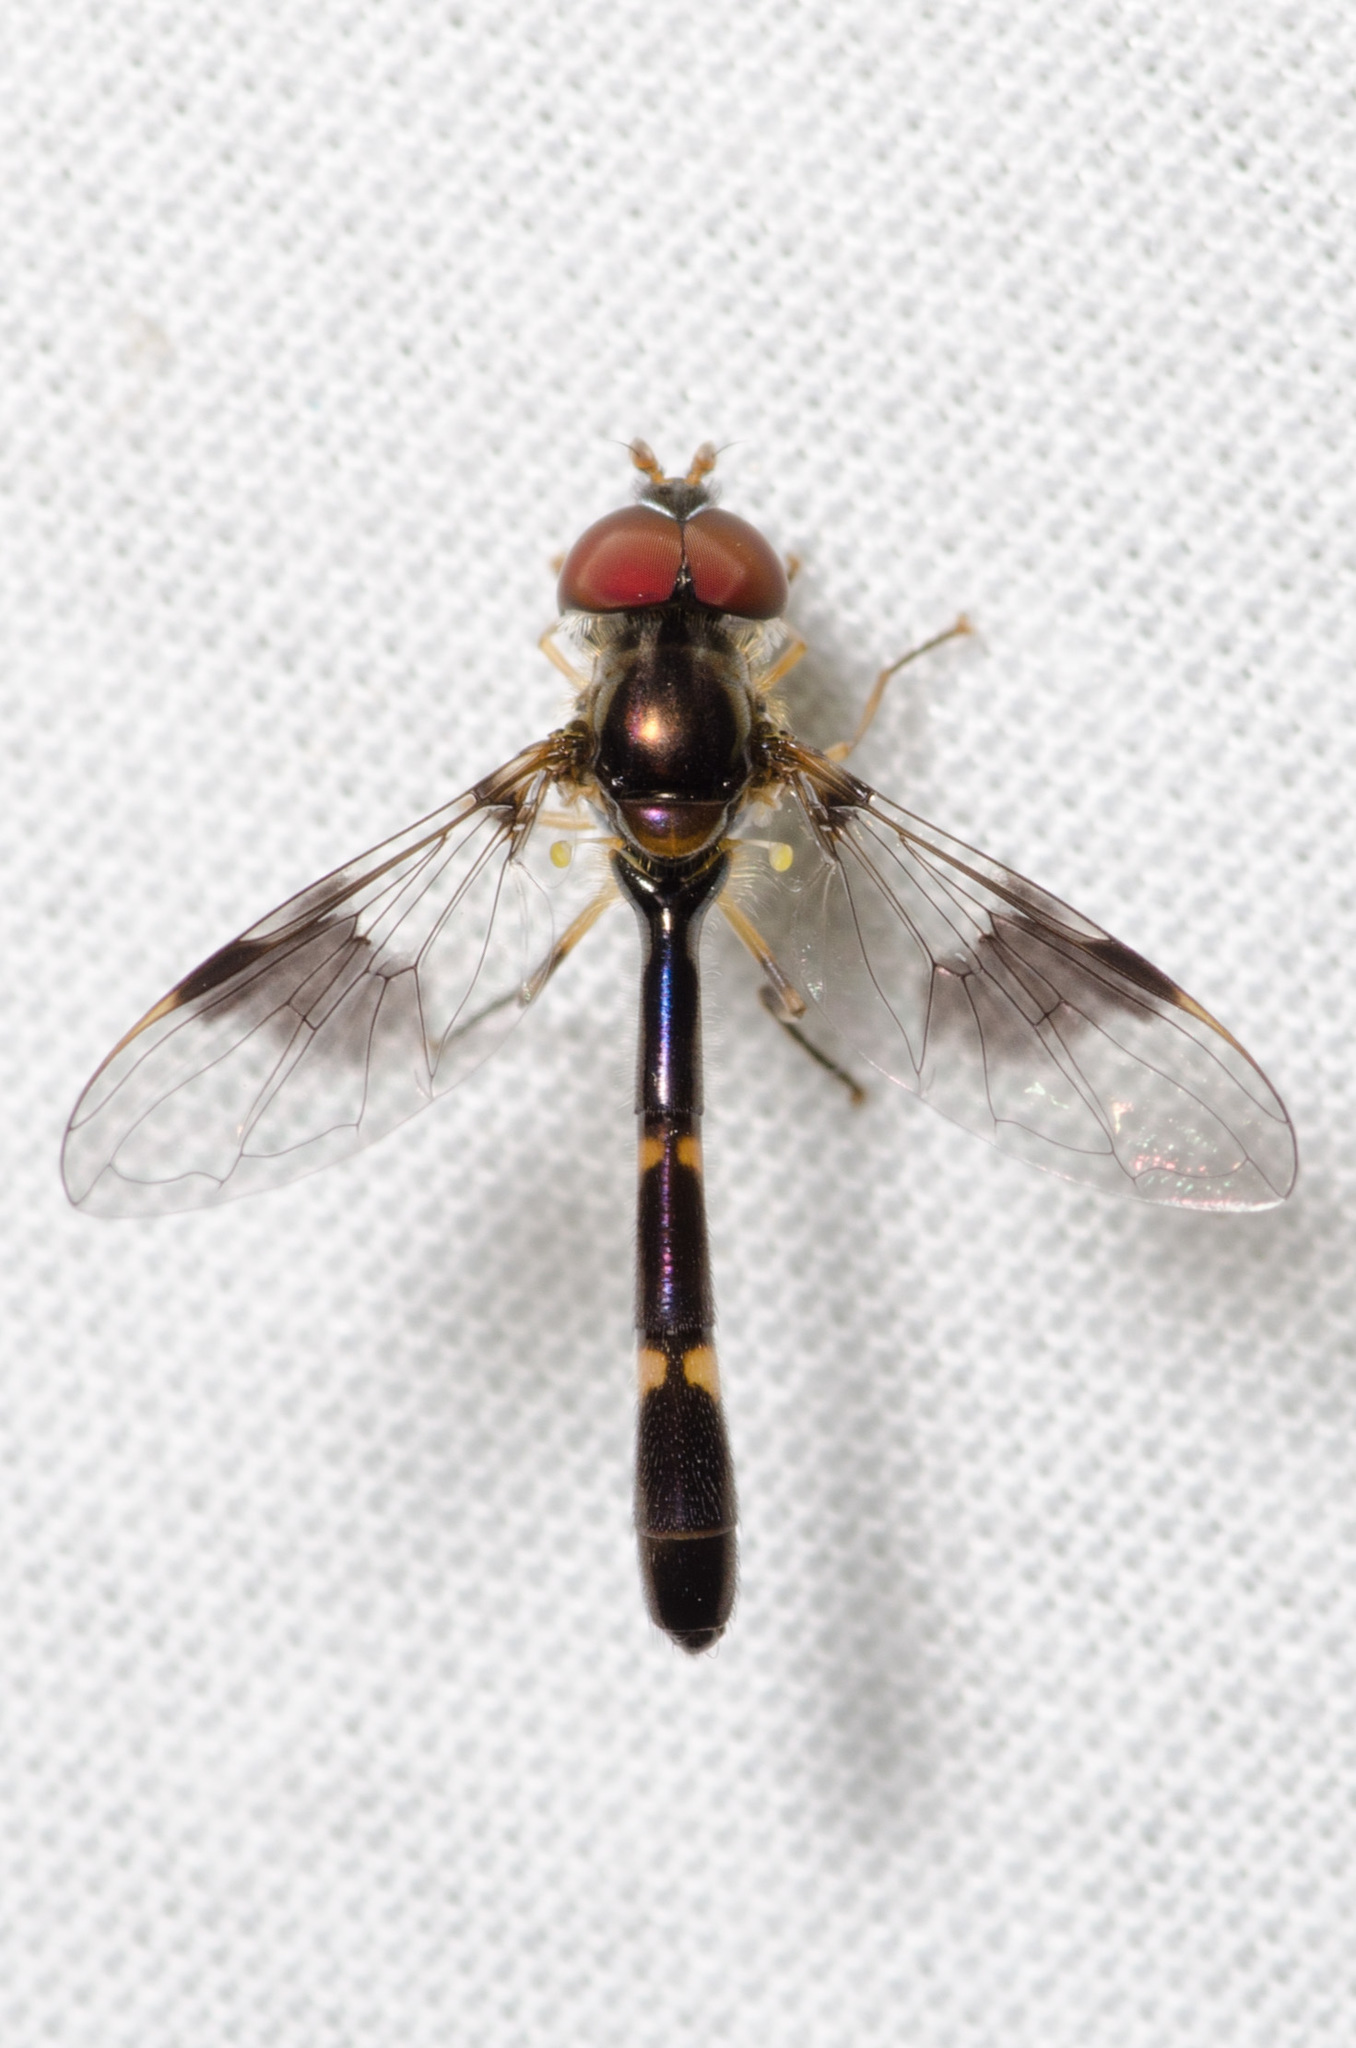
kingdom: Animalia
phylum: Arthropoda
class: Insecta
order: Diptera
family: Syrphidae
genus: Hypocritanus
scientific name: Hypocritanus fascipennis
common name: Eastern band-winged hover fly
